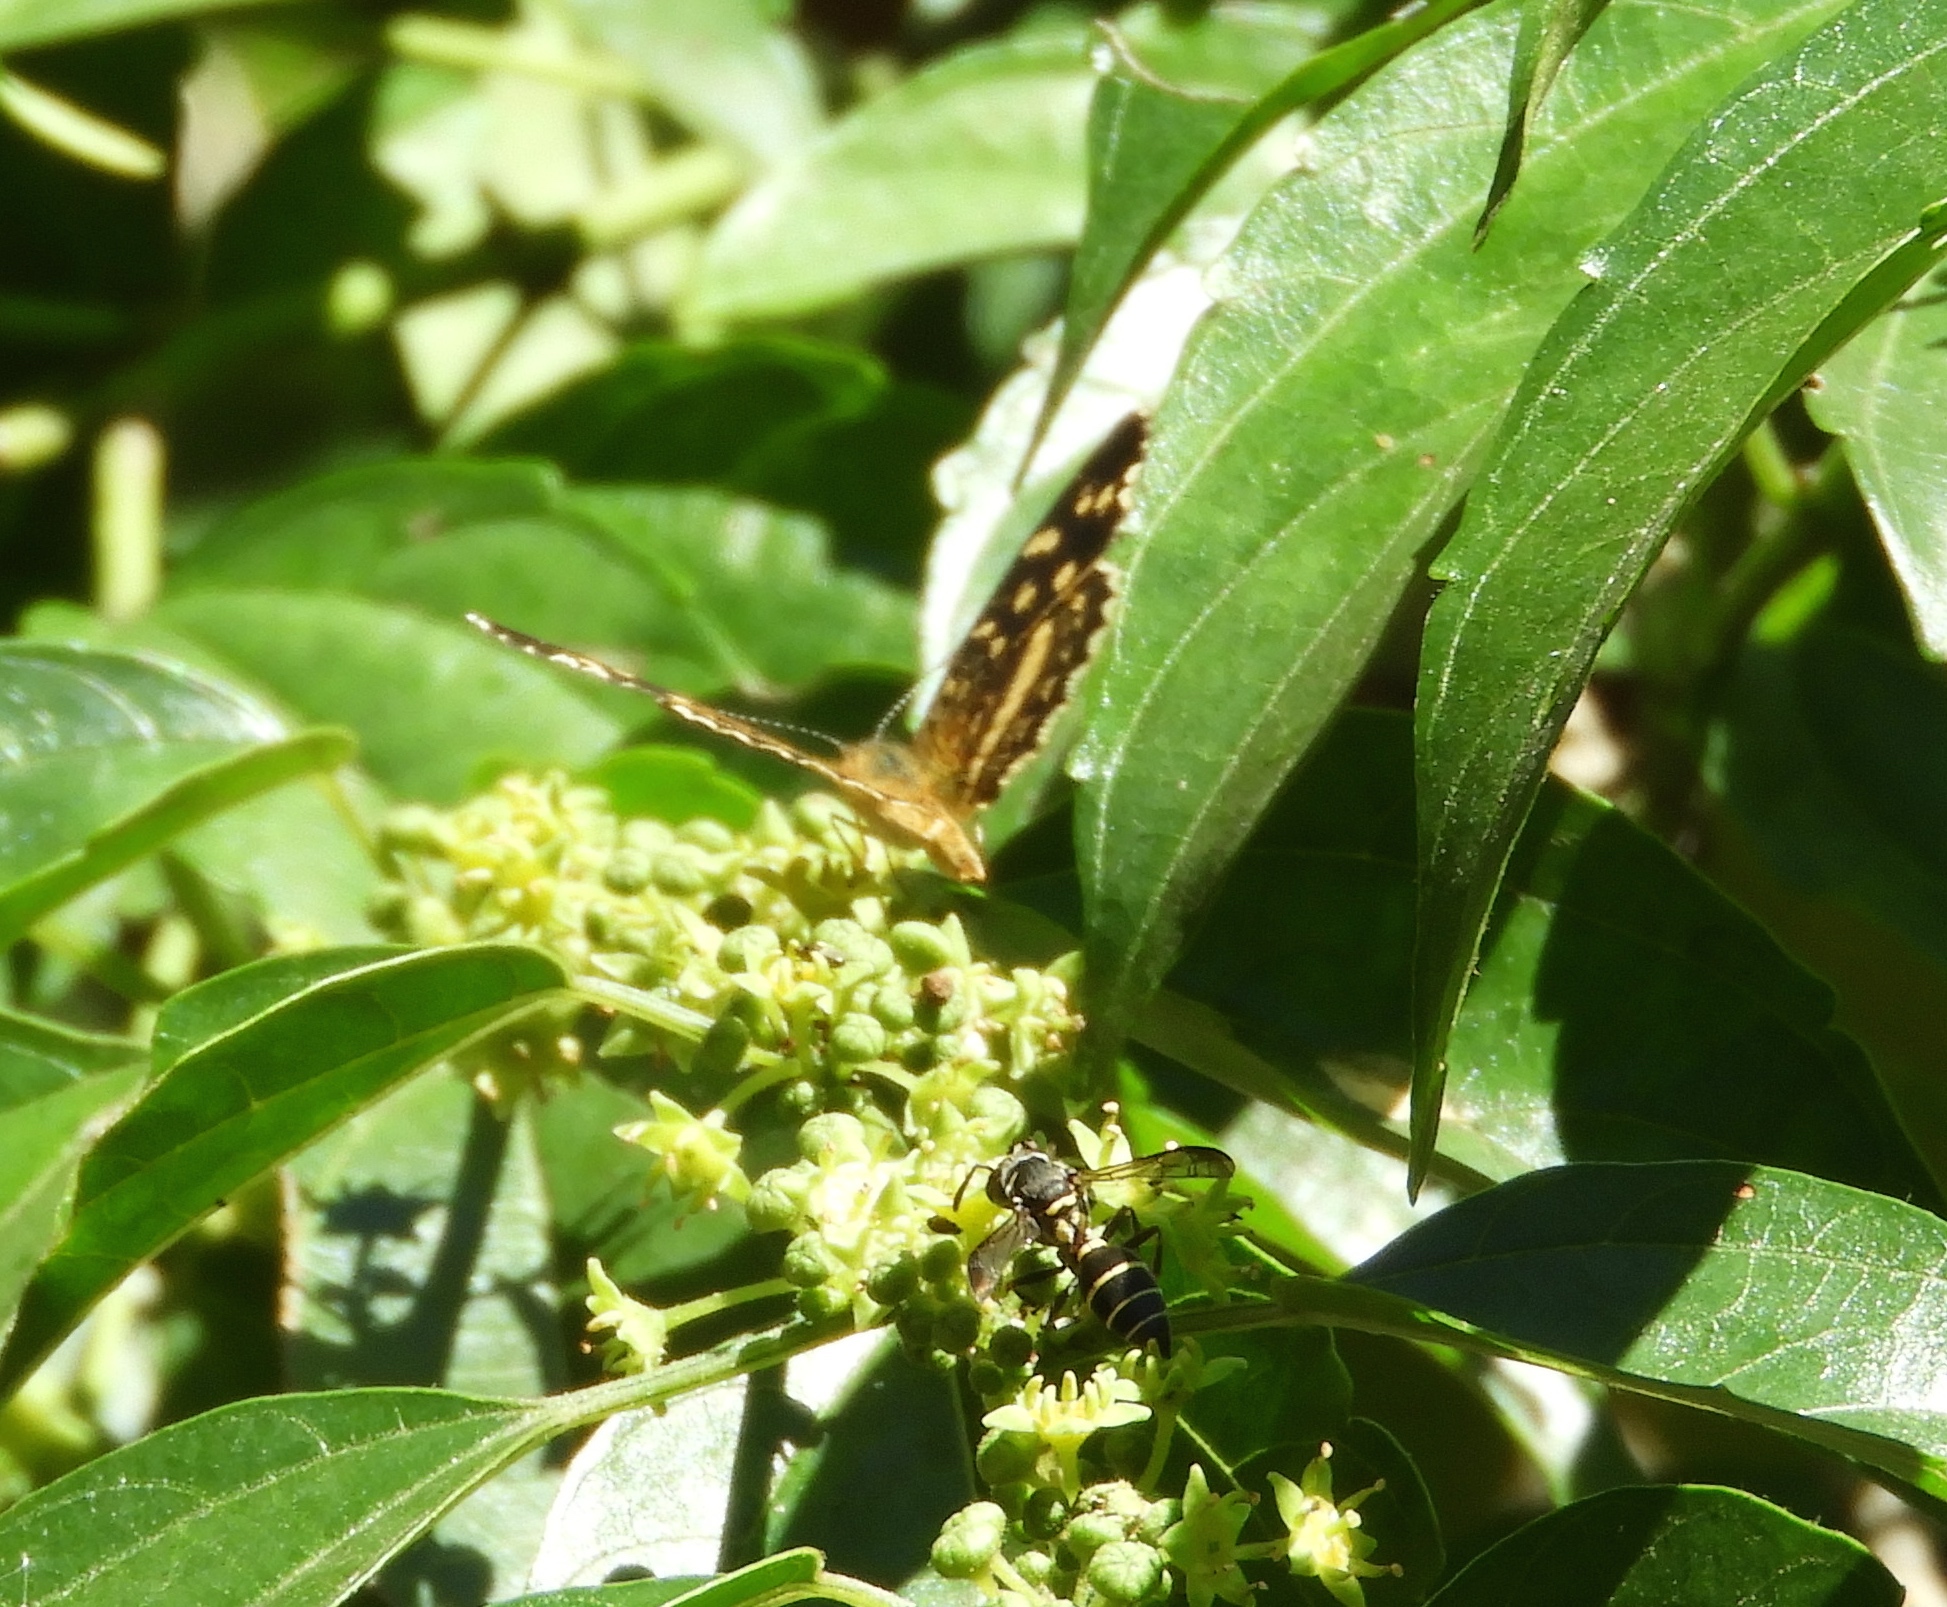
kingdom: Animalia
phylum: Arthropoda
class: Insecta
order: Lepidoptera
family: Nymphalidae
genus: Anthanassa
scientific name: Anthanassa tulcis
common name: Pale-banded crescent
